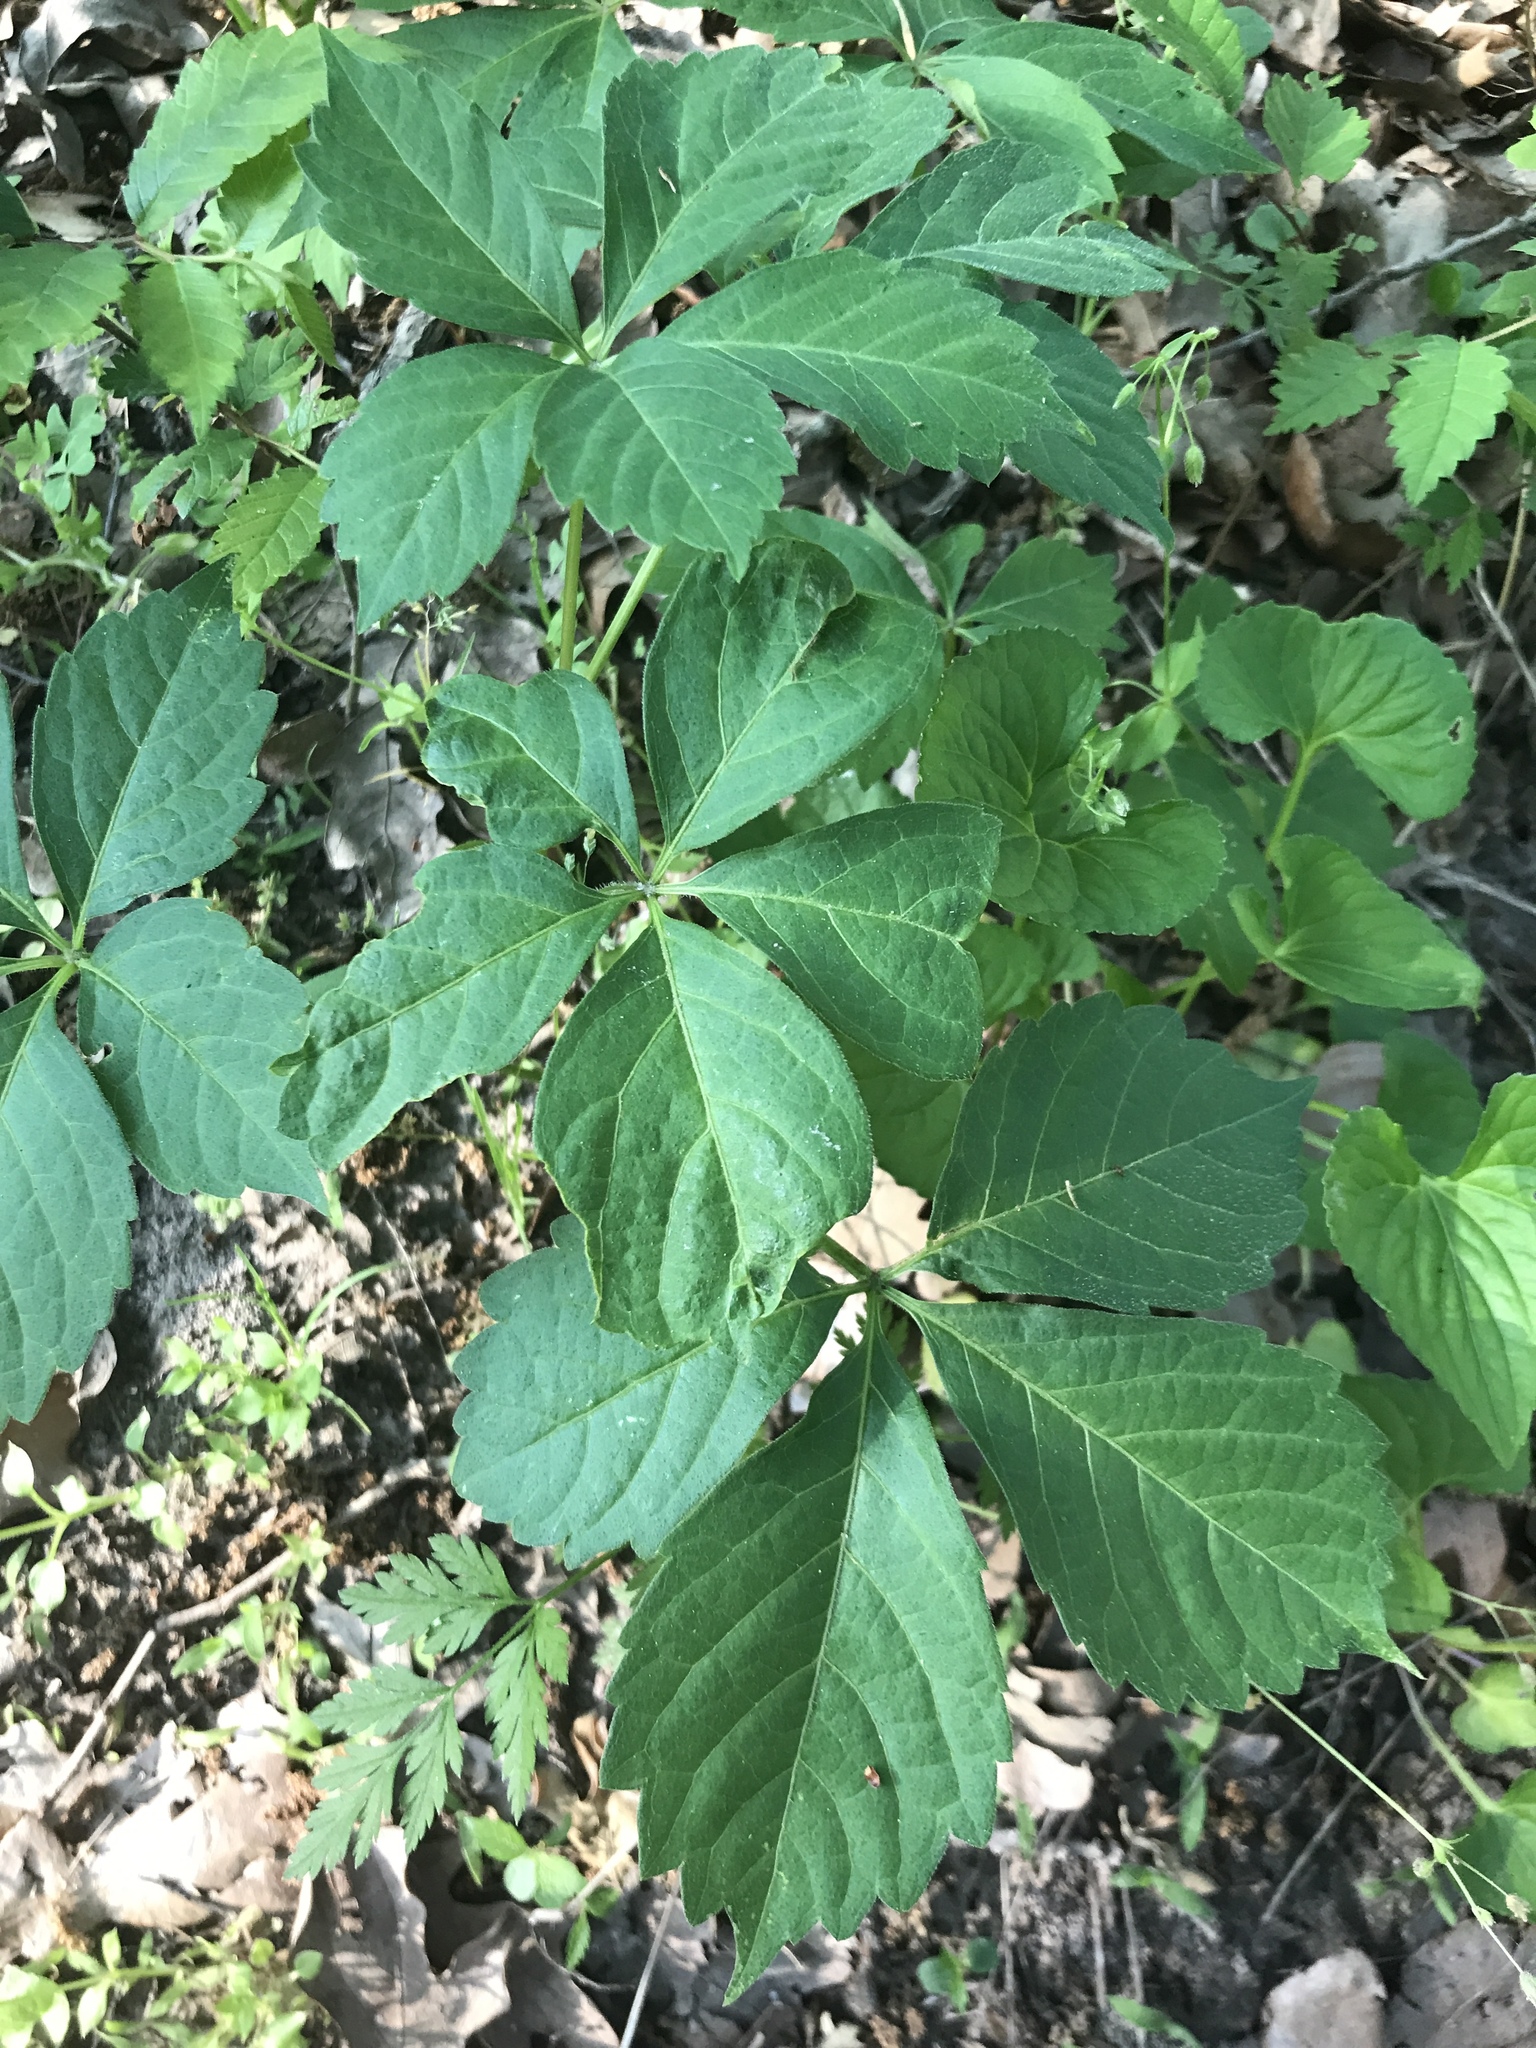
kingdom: Plantae
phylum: Tracheophyta
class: Magnoliopsida
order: Vitales
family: Vitaceae
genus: Parthenocissus
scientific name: Parthenocissus quinquefolia
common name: Virginia-creeper
